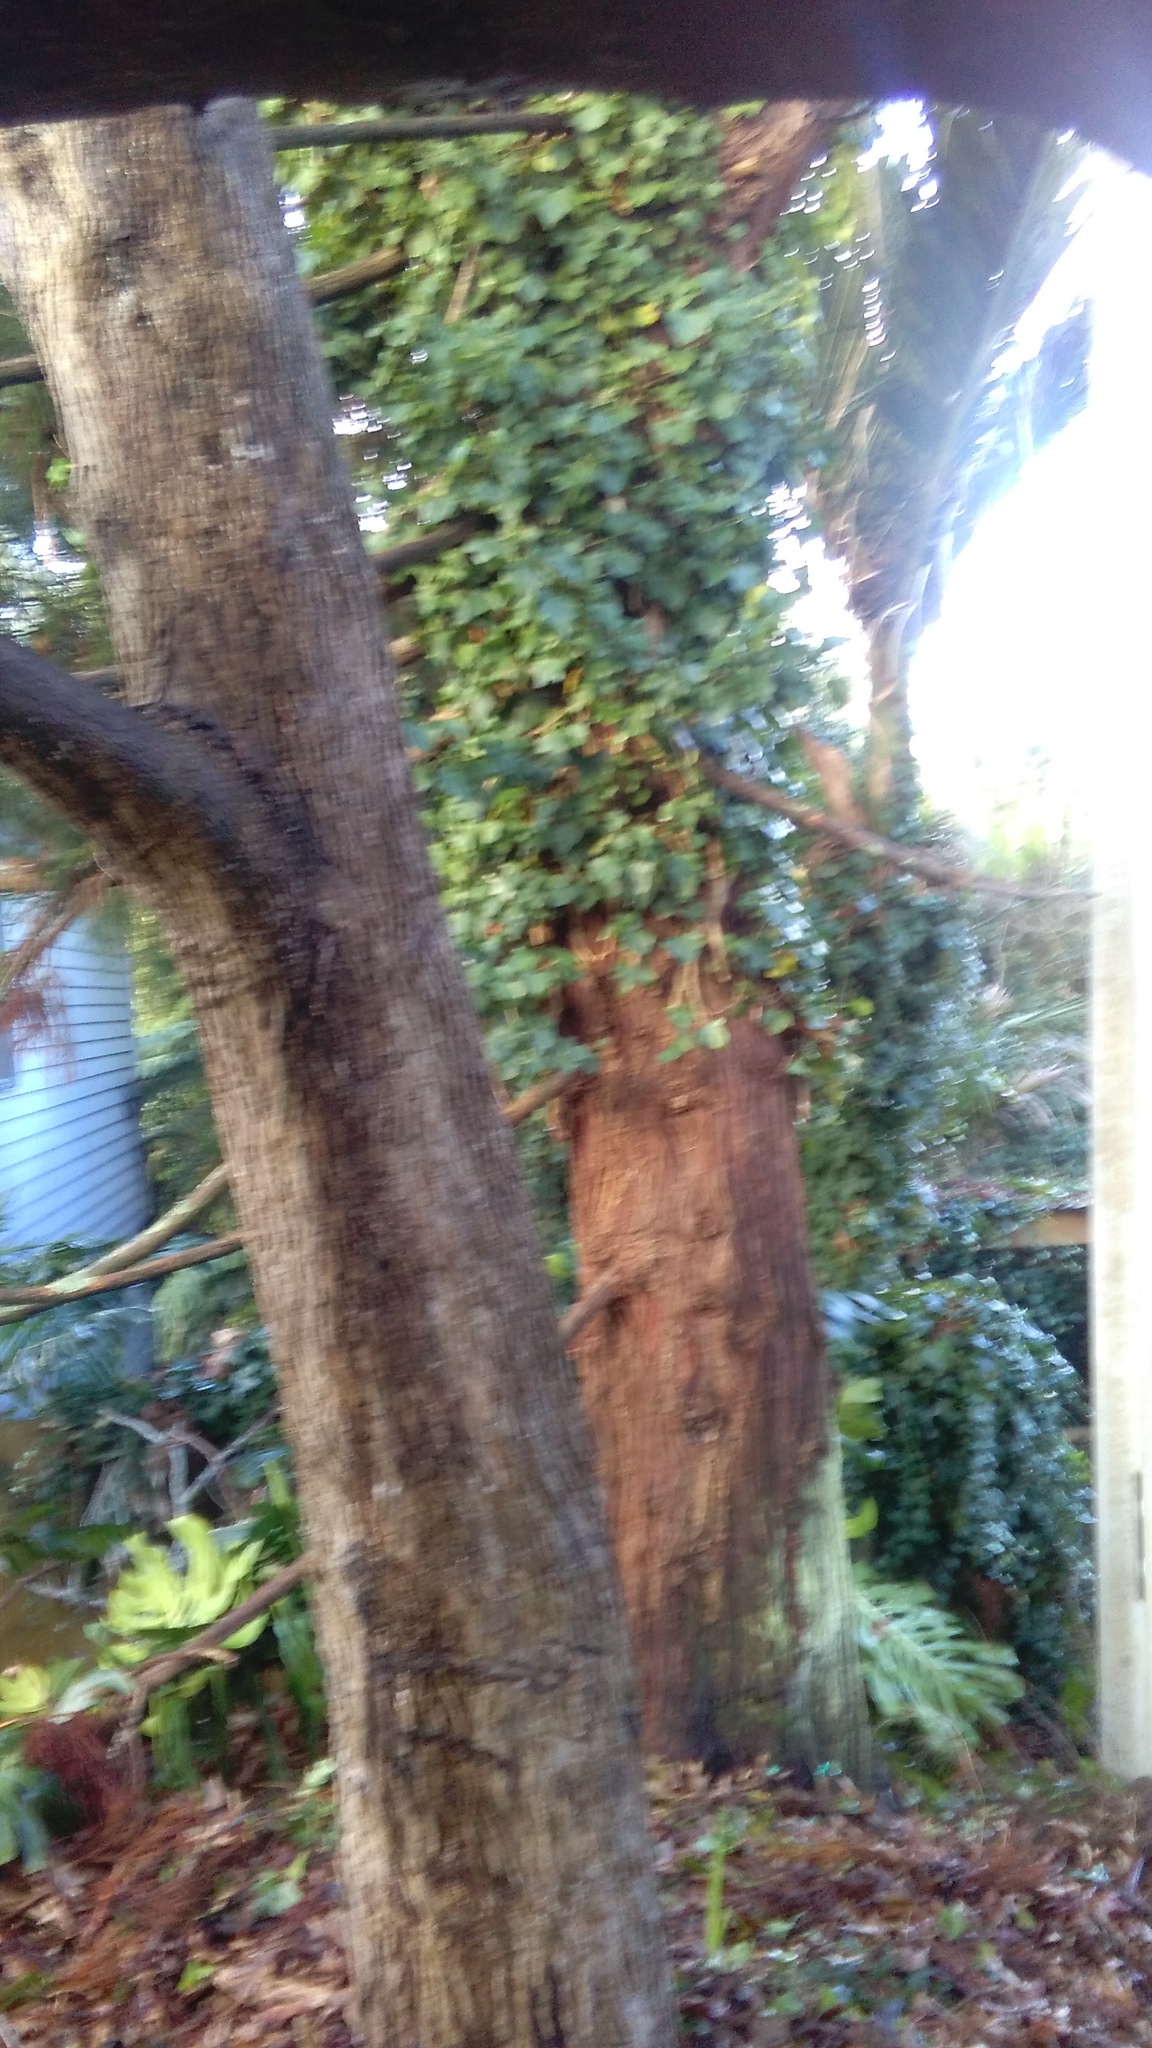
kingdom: Plantae
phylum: Tracheophyta
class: Magnoliopsida
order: Apiales
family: Araliaceae
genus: Hedera
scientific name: Hedera helix
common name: Ivy
